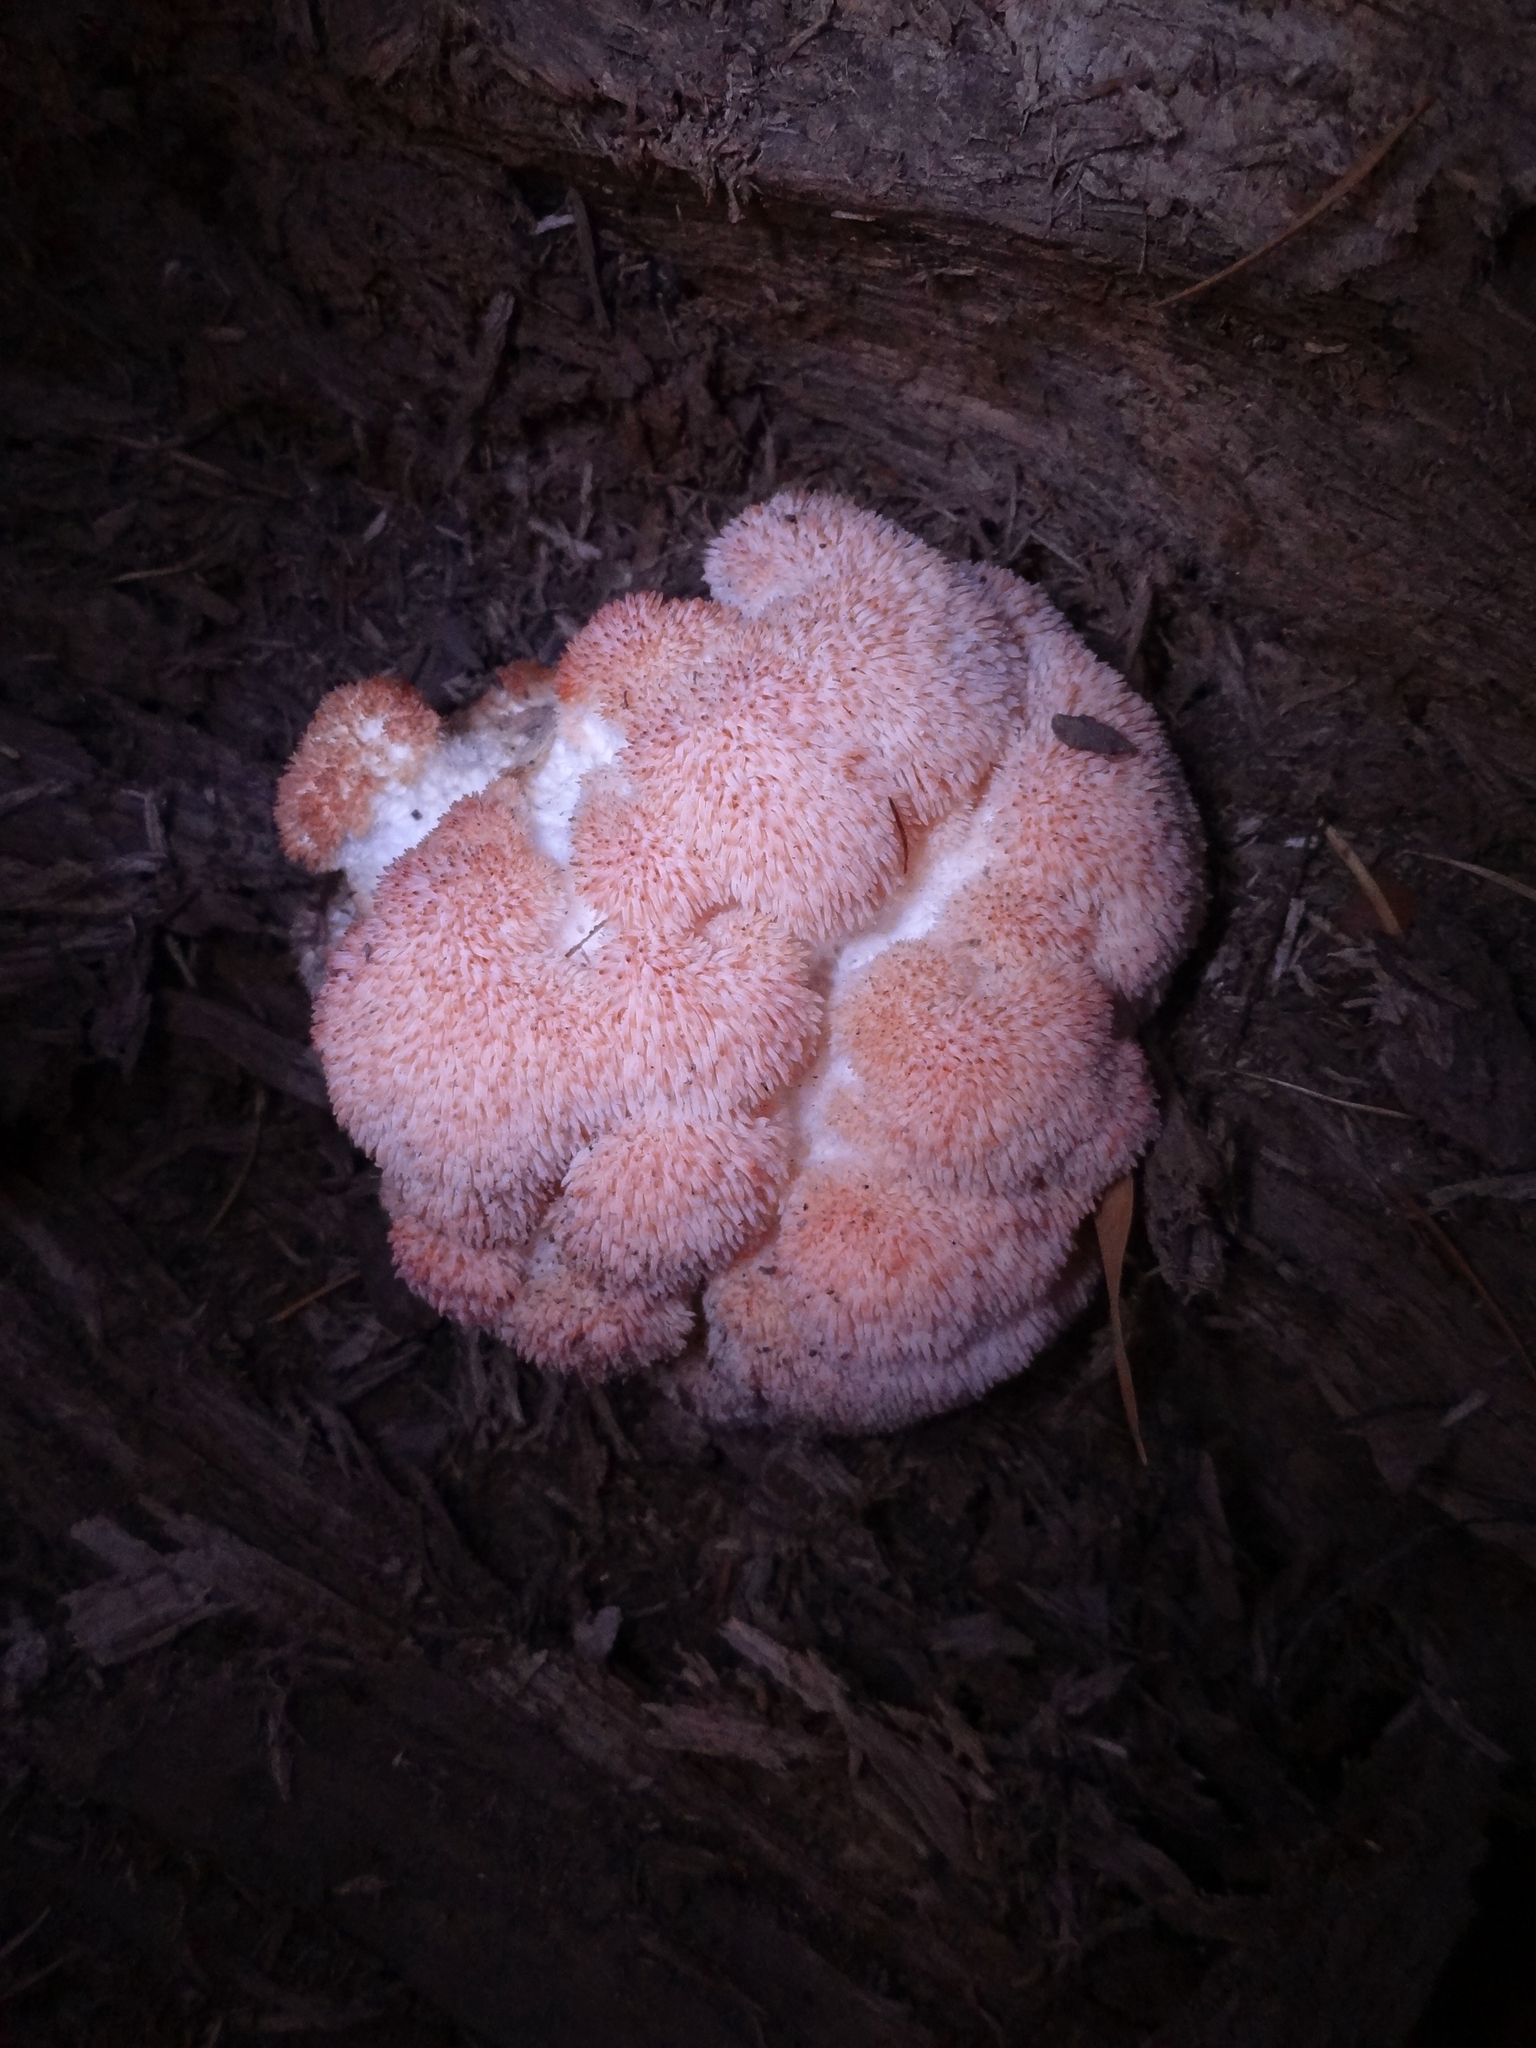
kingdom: Fungi
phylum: Basidiomycota
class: Agaricomycetes
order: Russulales
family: Hericiaceae
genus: Hericium
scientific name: Hericium erinaceus
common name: Bearded tooth
